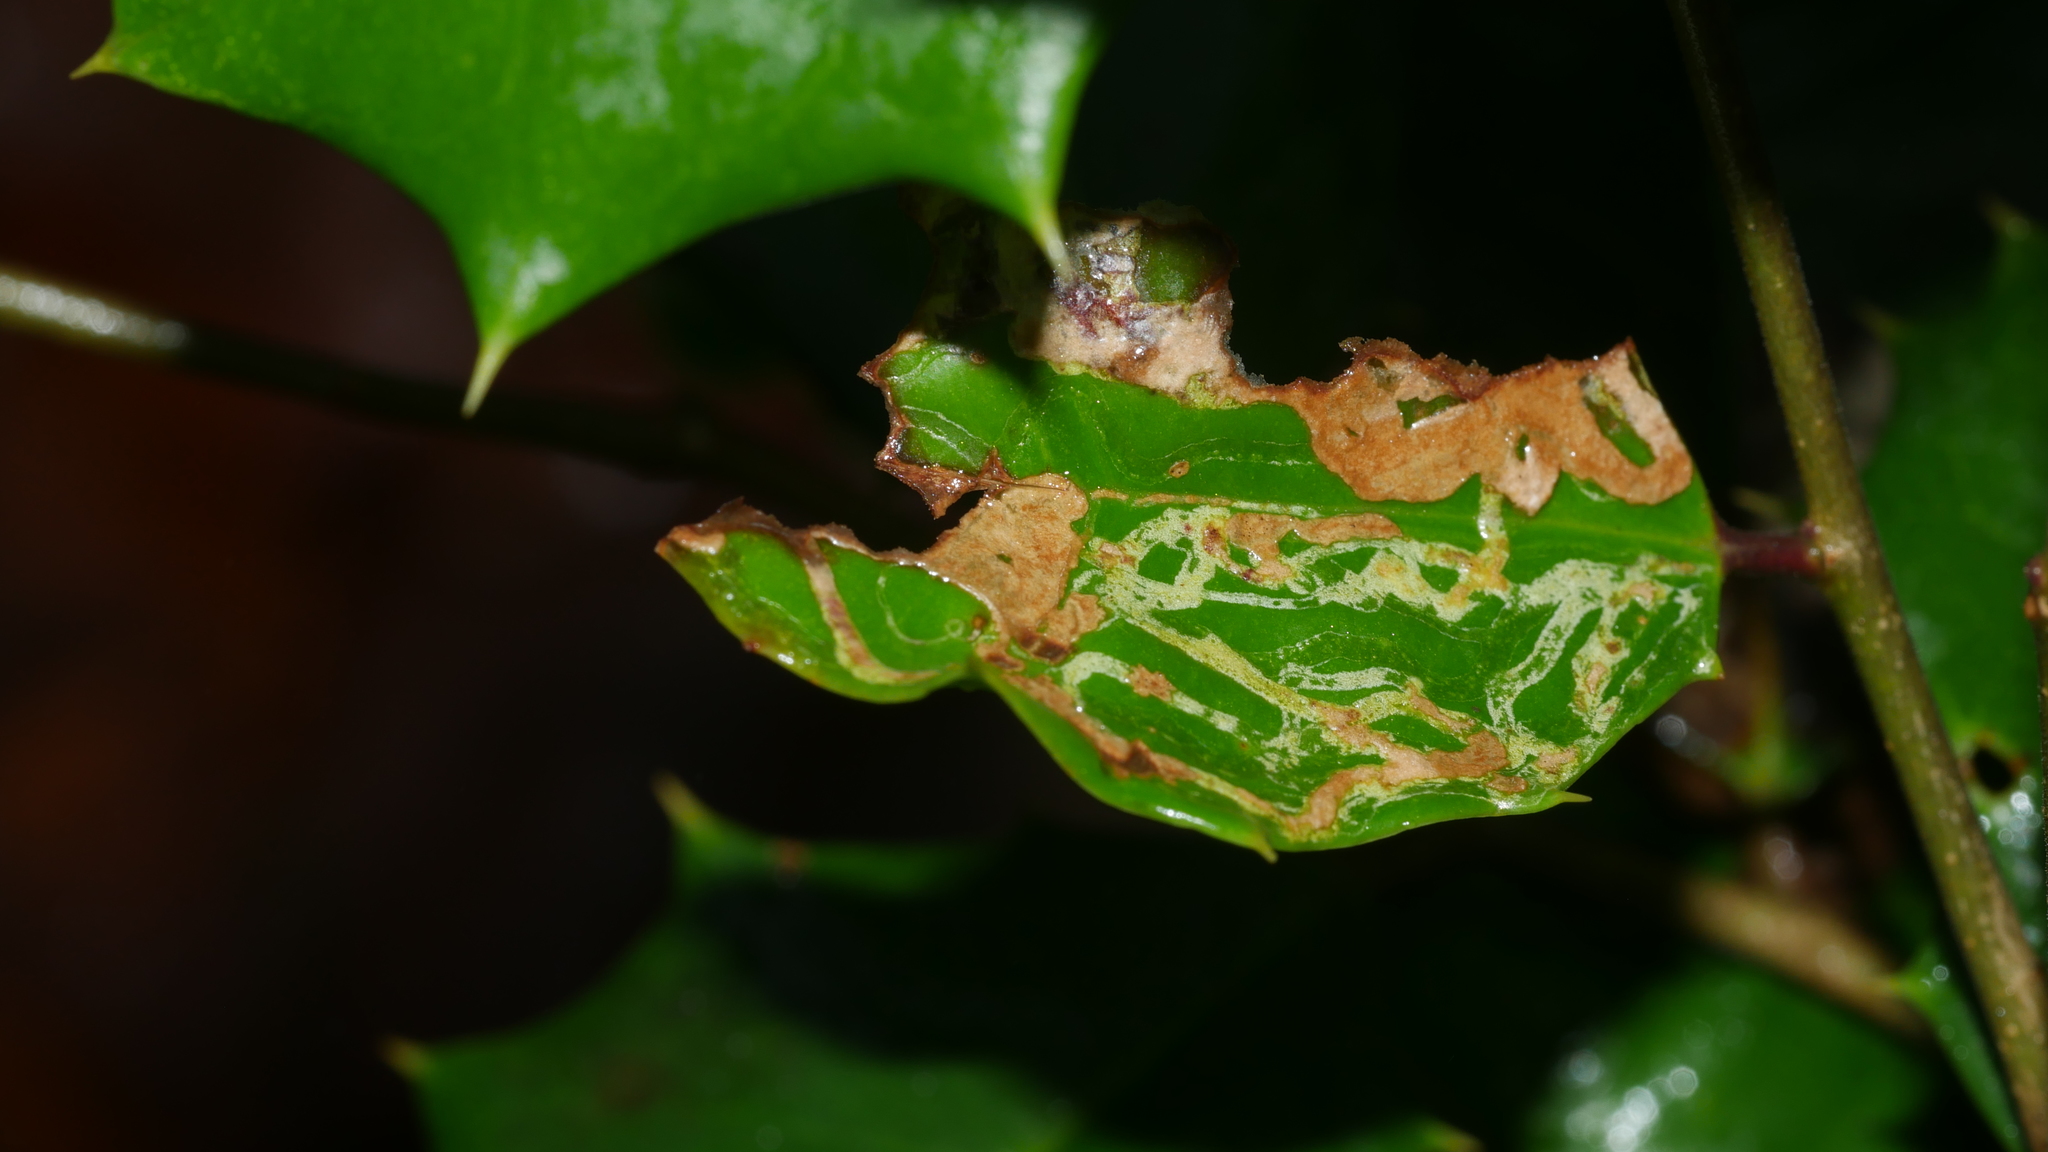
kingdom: Animalia
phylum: Arthropoda
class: Insecta
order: Diptera
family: Agromyzidae
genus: Phytomyza
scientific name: Phytomyza opacae
